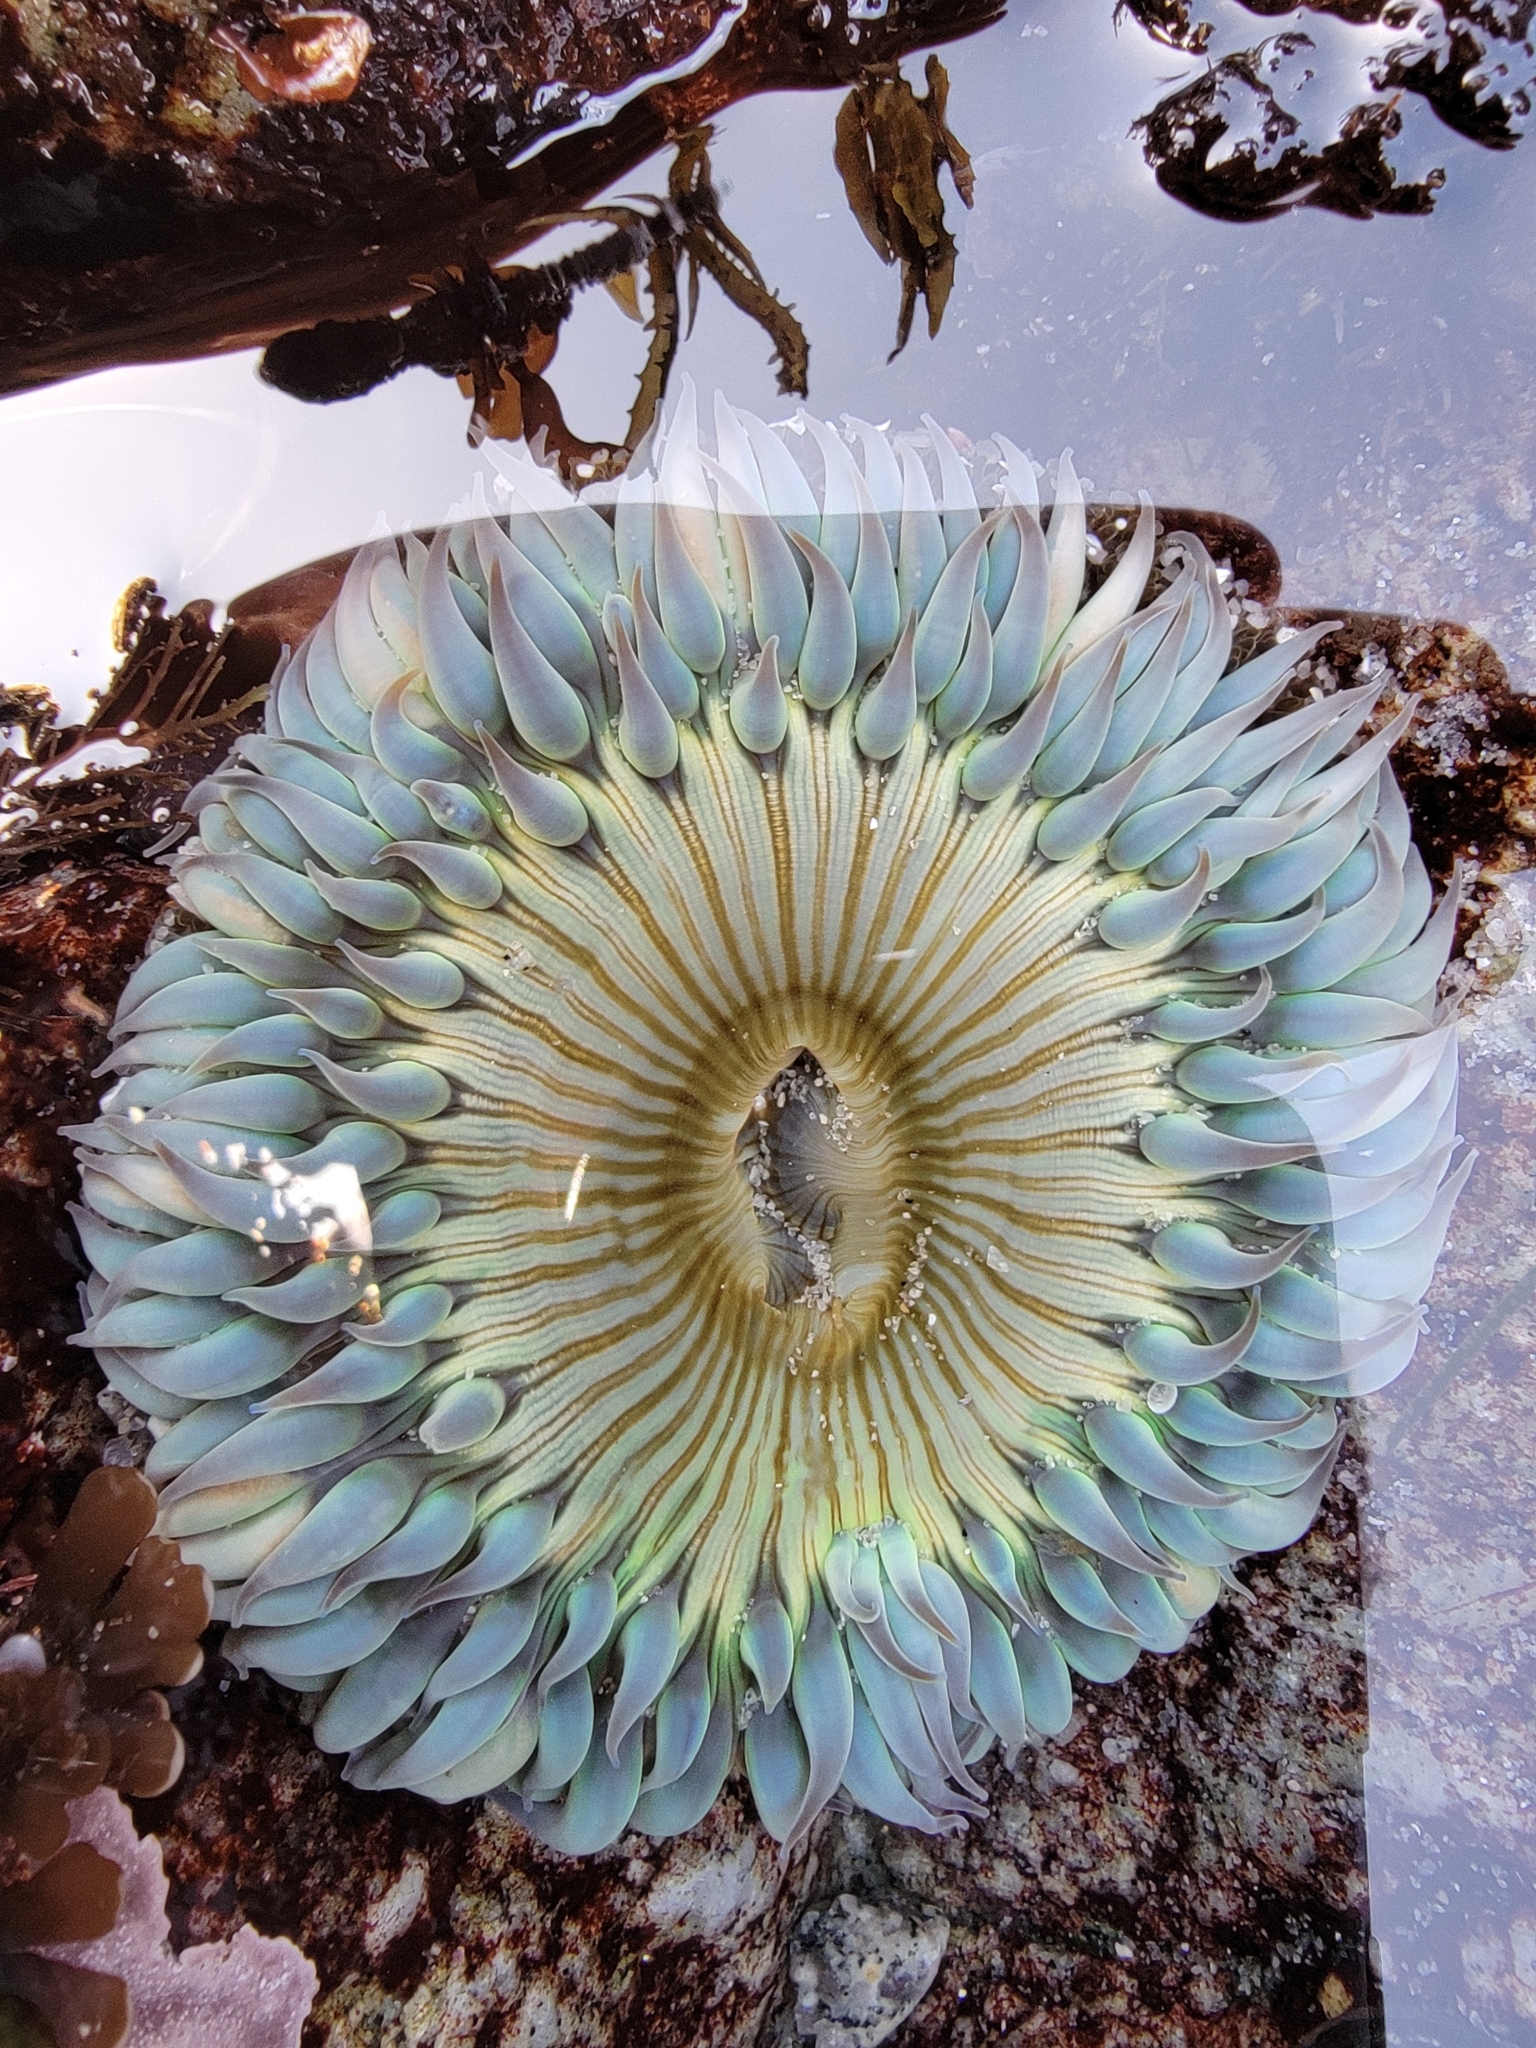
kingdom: Animalia
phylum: Cnidaria
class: Anthozoa
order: Actiniaria
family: Actiniidae
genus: Anthopleura
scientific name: Anthopleura sola
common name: Sun anemone
